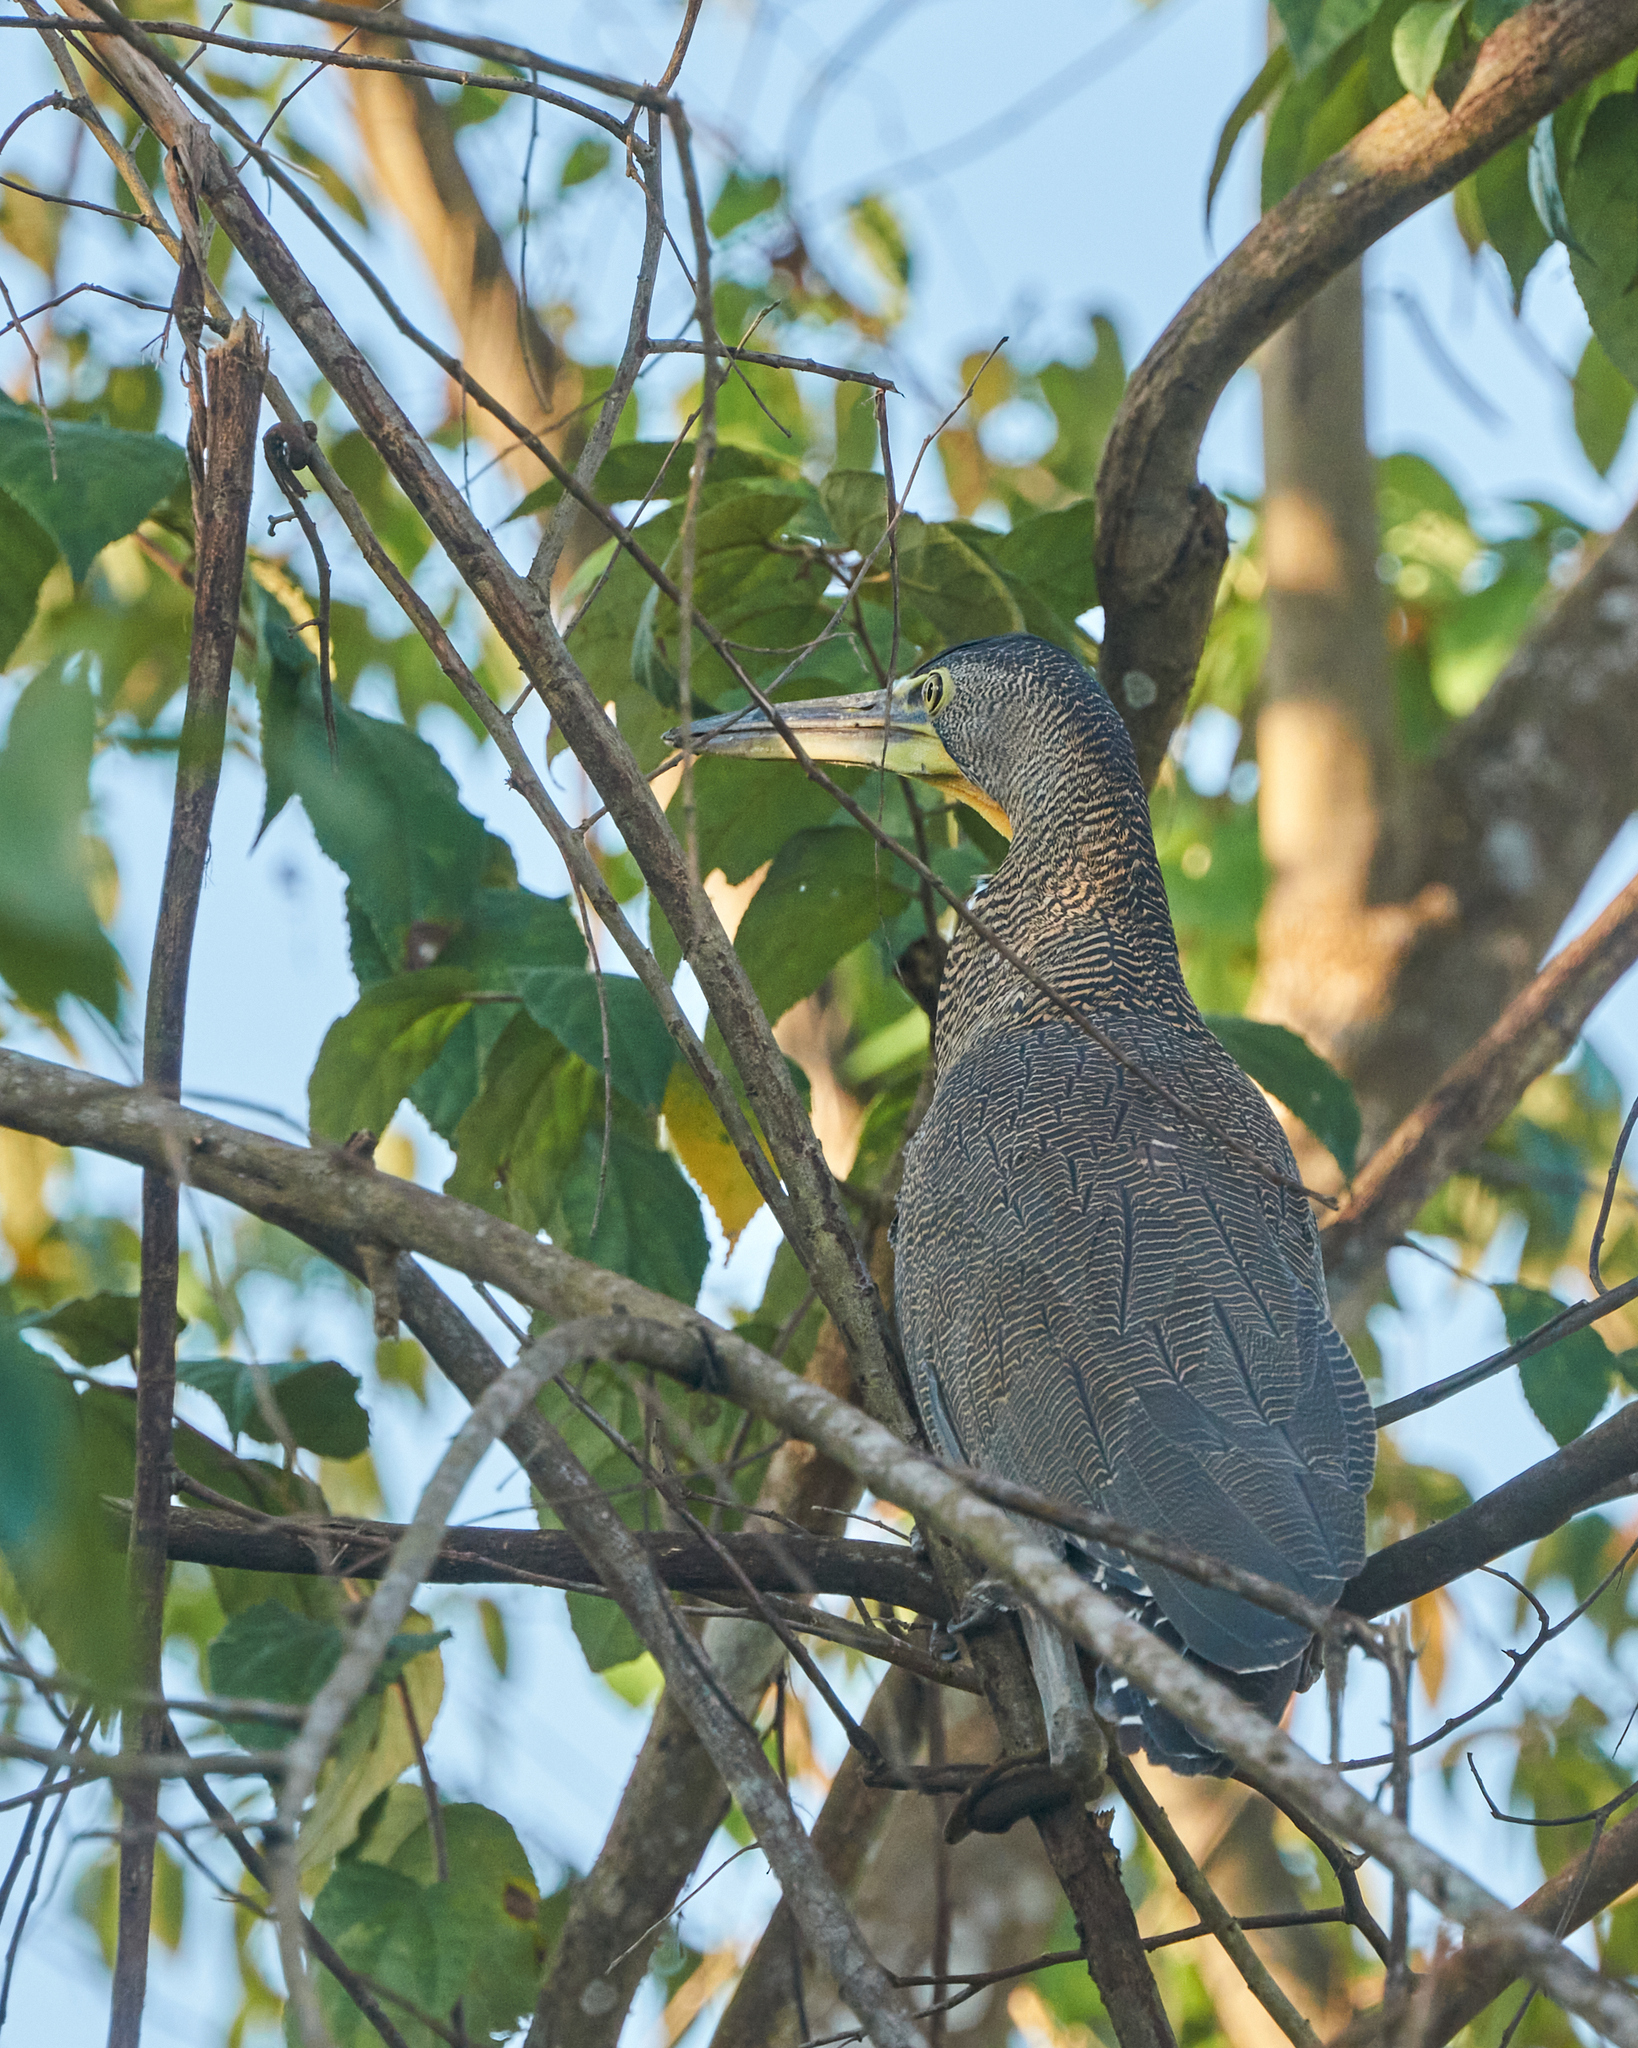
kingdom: Animalia
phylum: Chordata
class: Aves
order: Pelecaniformes
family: Ardeidae
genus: Tigrisoma
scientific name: Tigrisoma mexicanum
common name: Bare-throated tiger-heron
